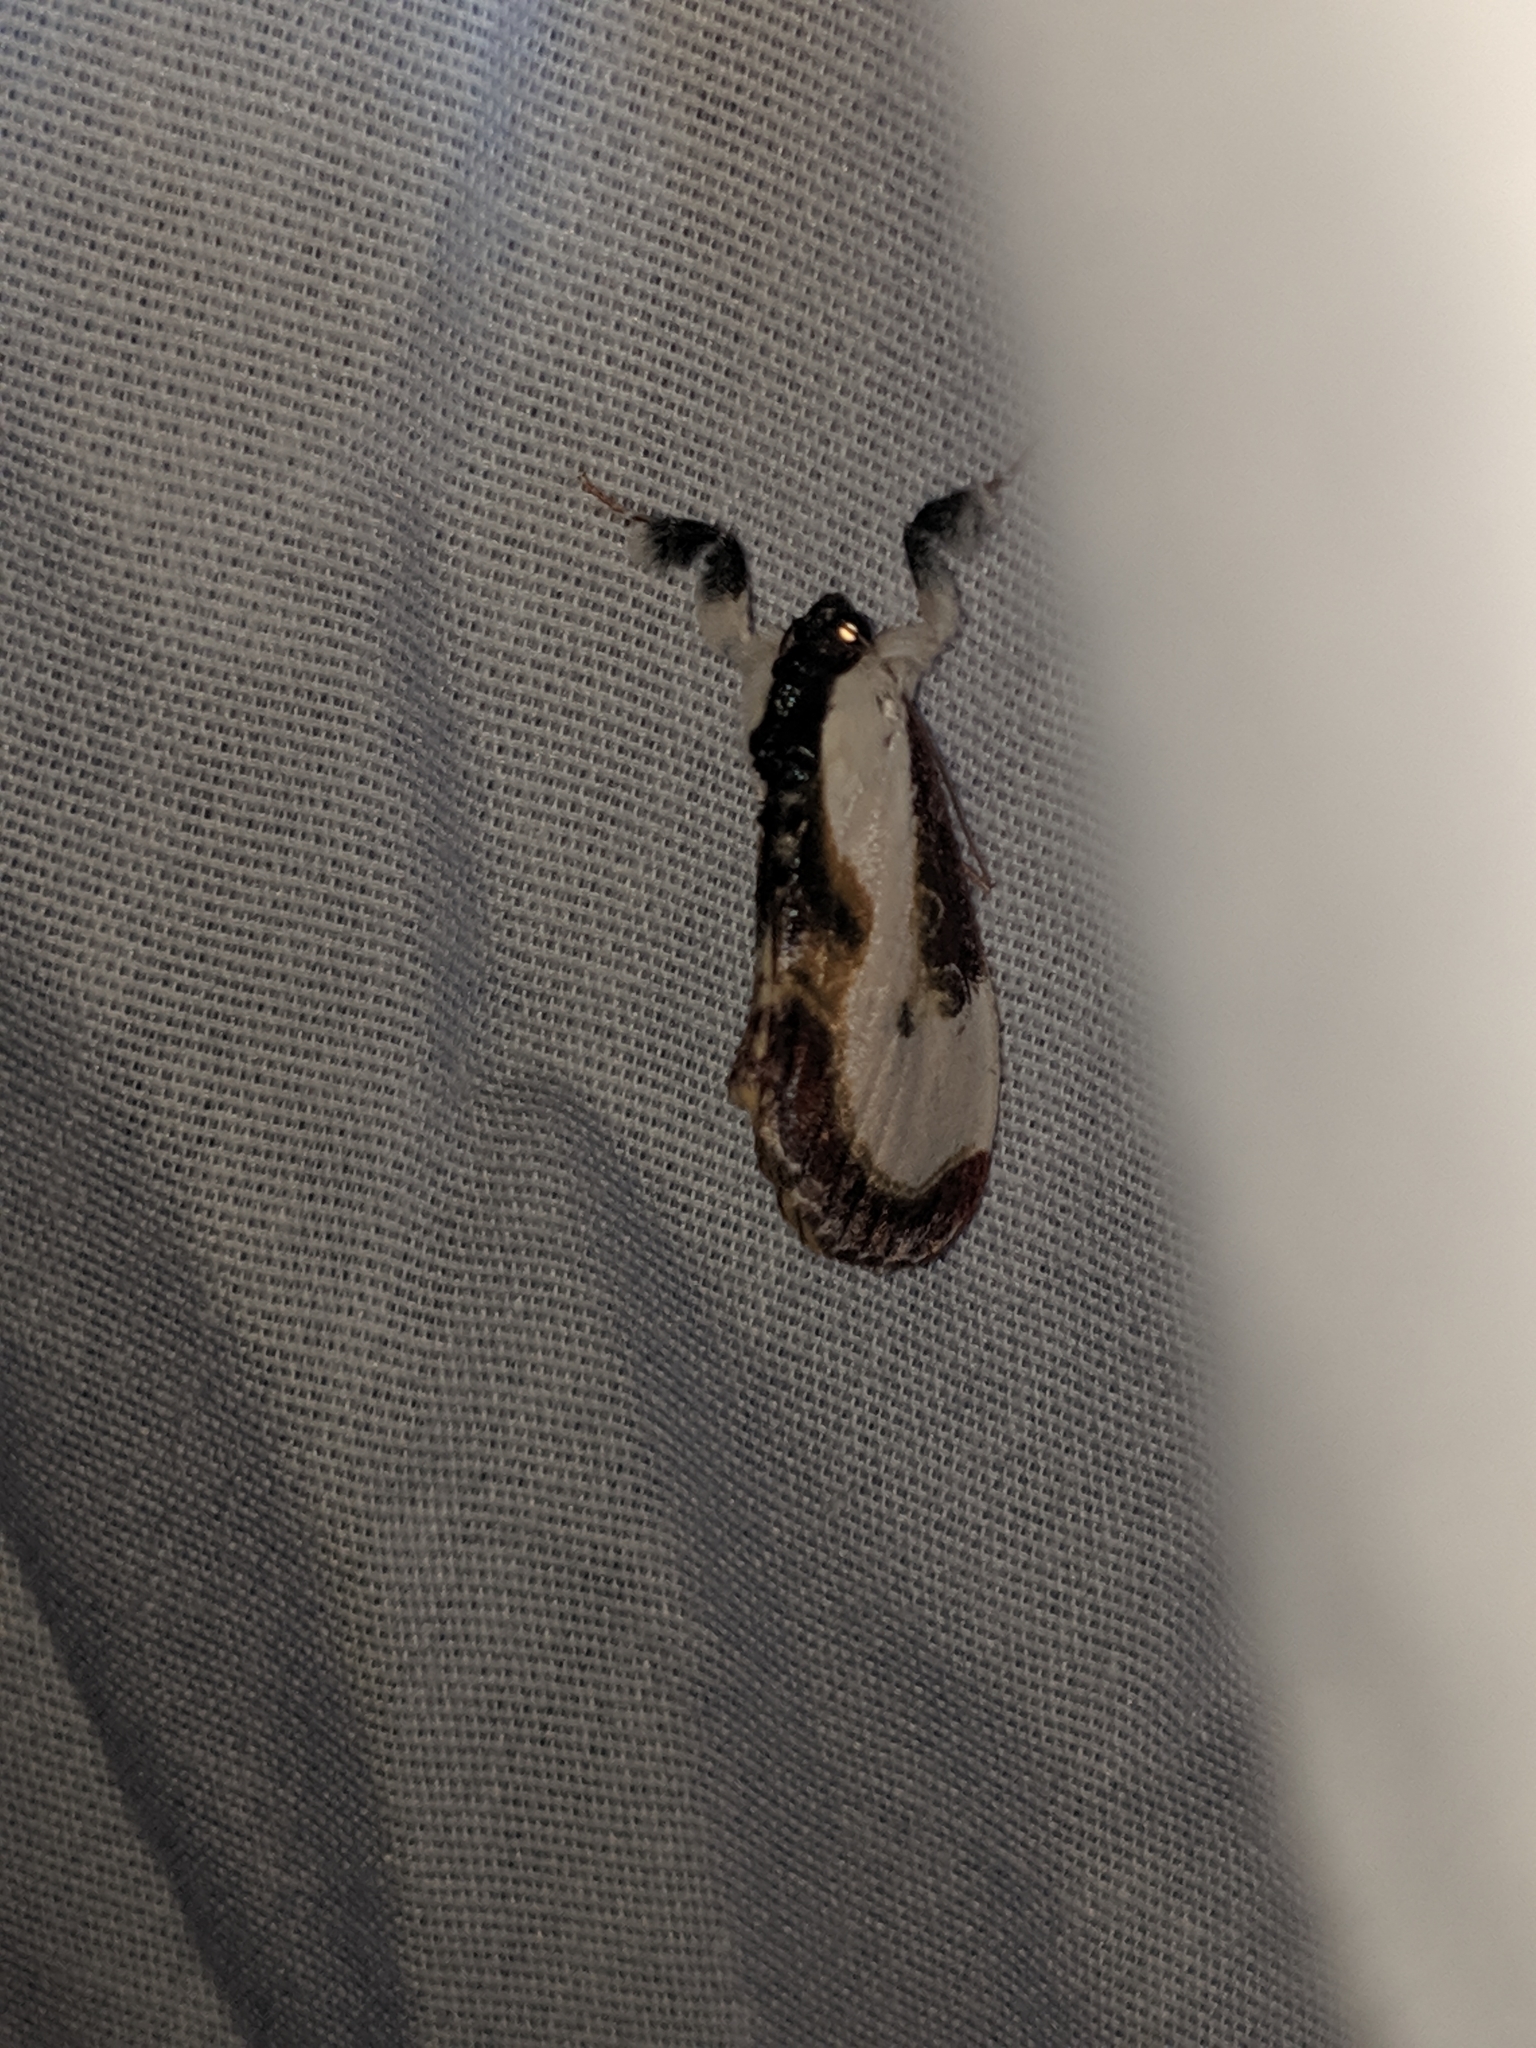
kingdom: Animalia
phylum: Arthropoda
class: Insecta
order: Lepidoptera
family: Noctuidae
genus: Eudryas
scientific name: Eudryas grata
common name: Beautiful wood-nymph
